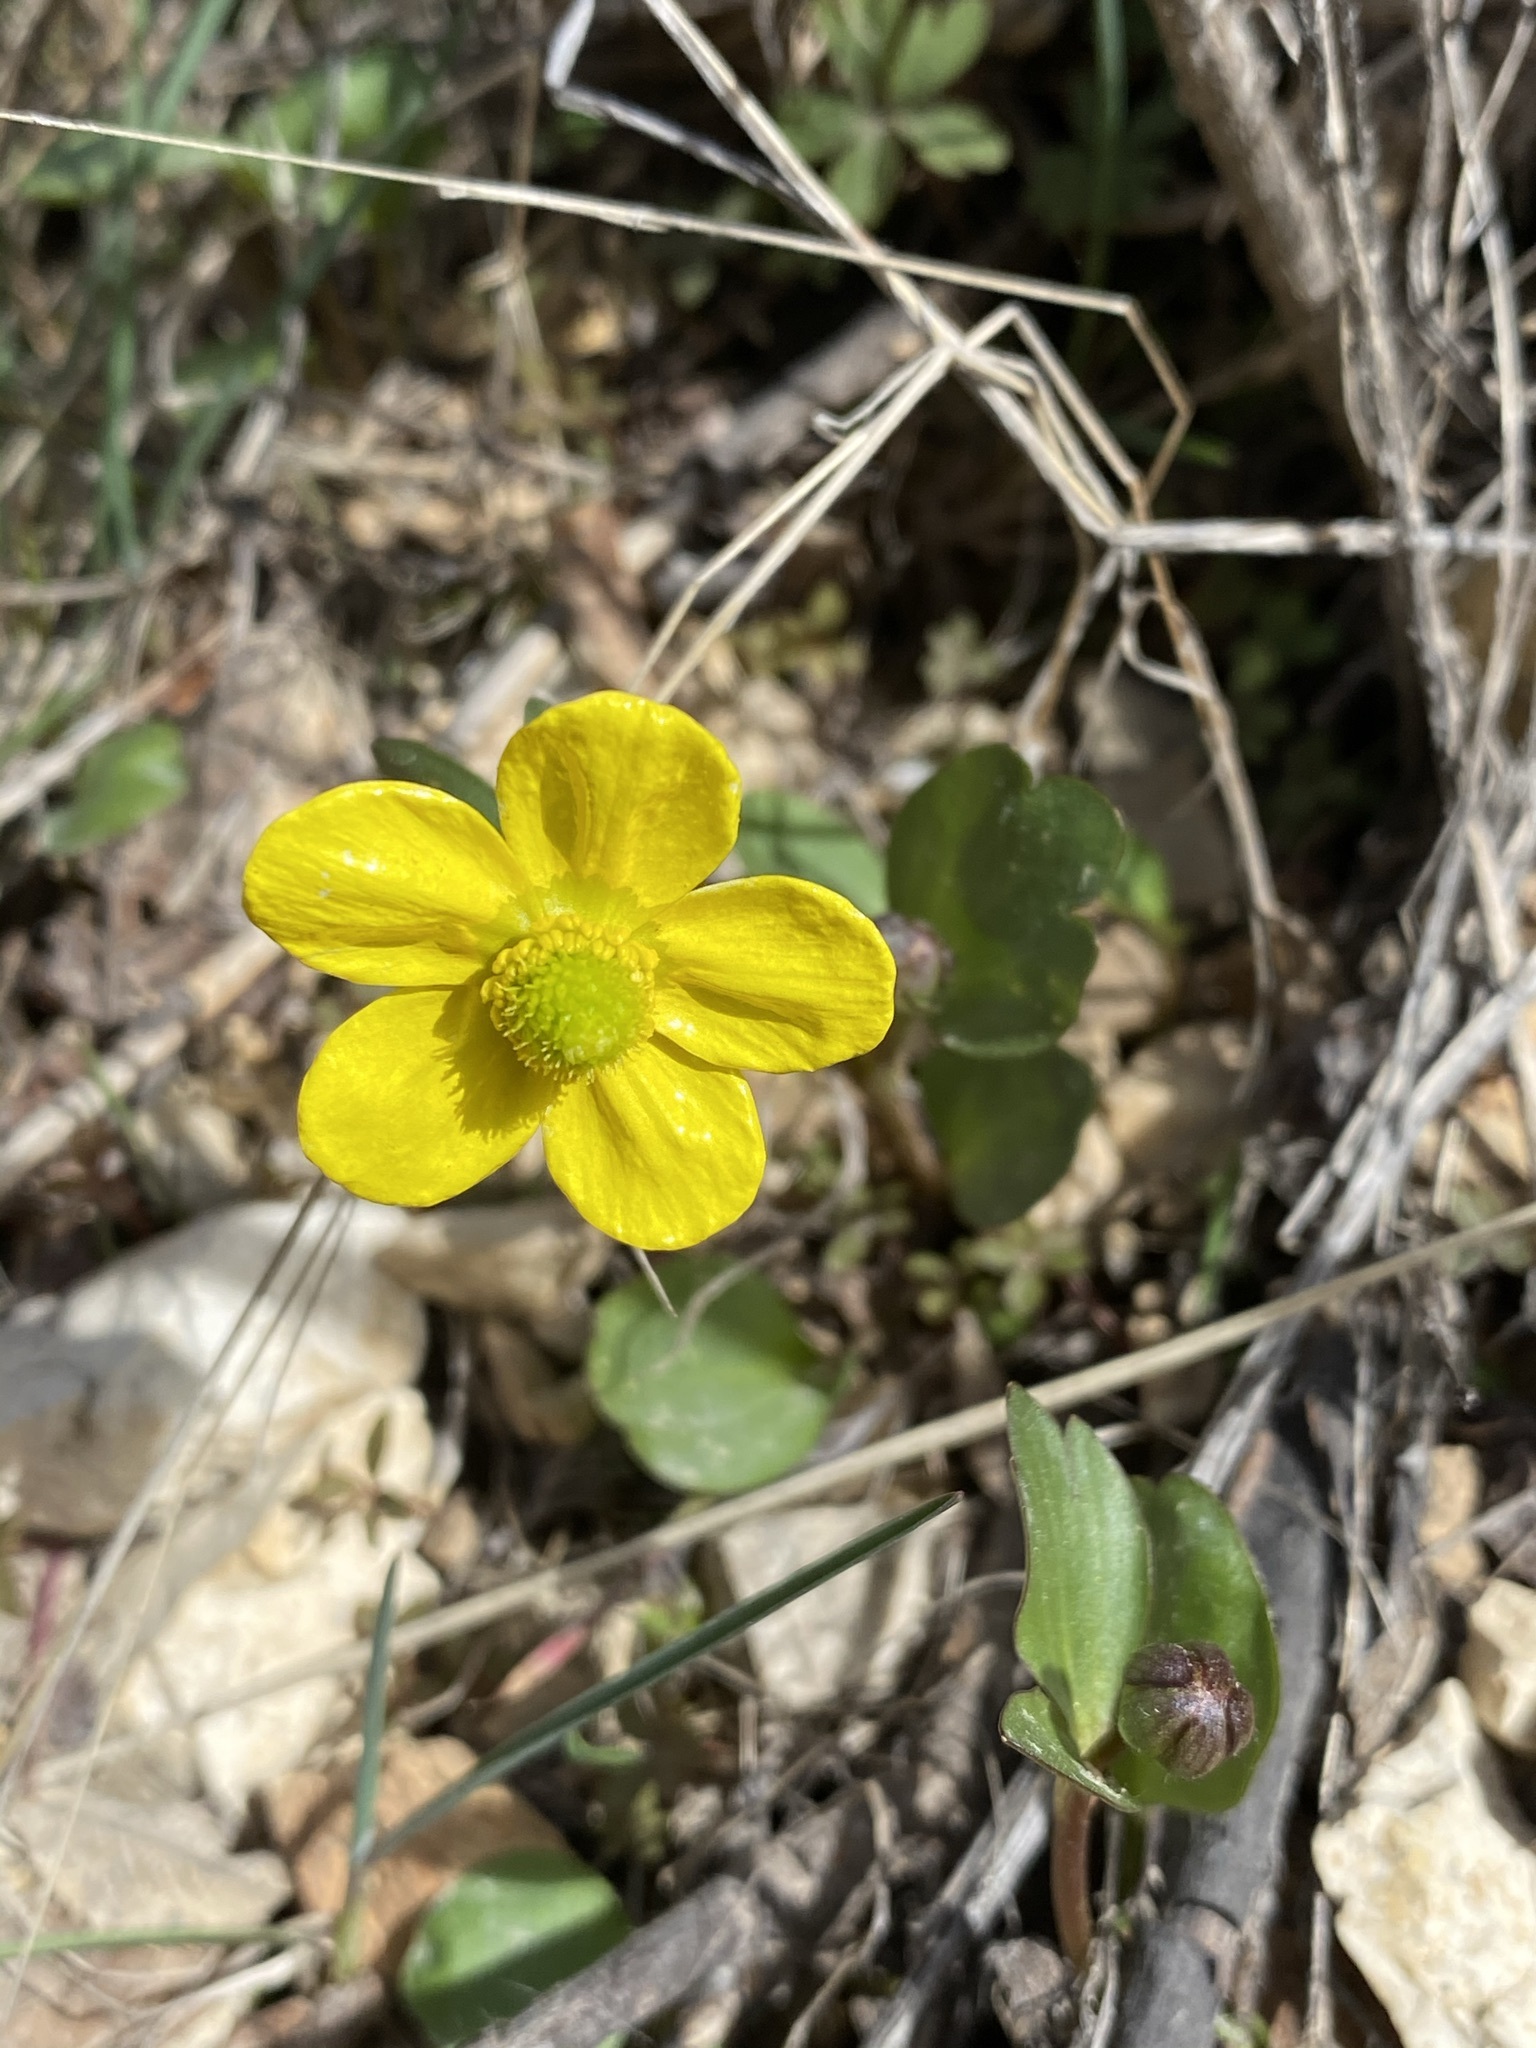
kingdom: Plantae
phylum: Tracheophyta
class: Magnoliopsida
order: Ranunculales
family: Ranunculaceae
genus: Ranunculus
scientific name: Ranunculus glaberrimus
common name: Sagebrush buttercup
